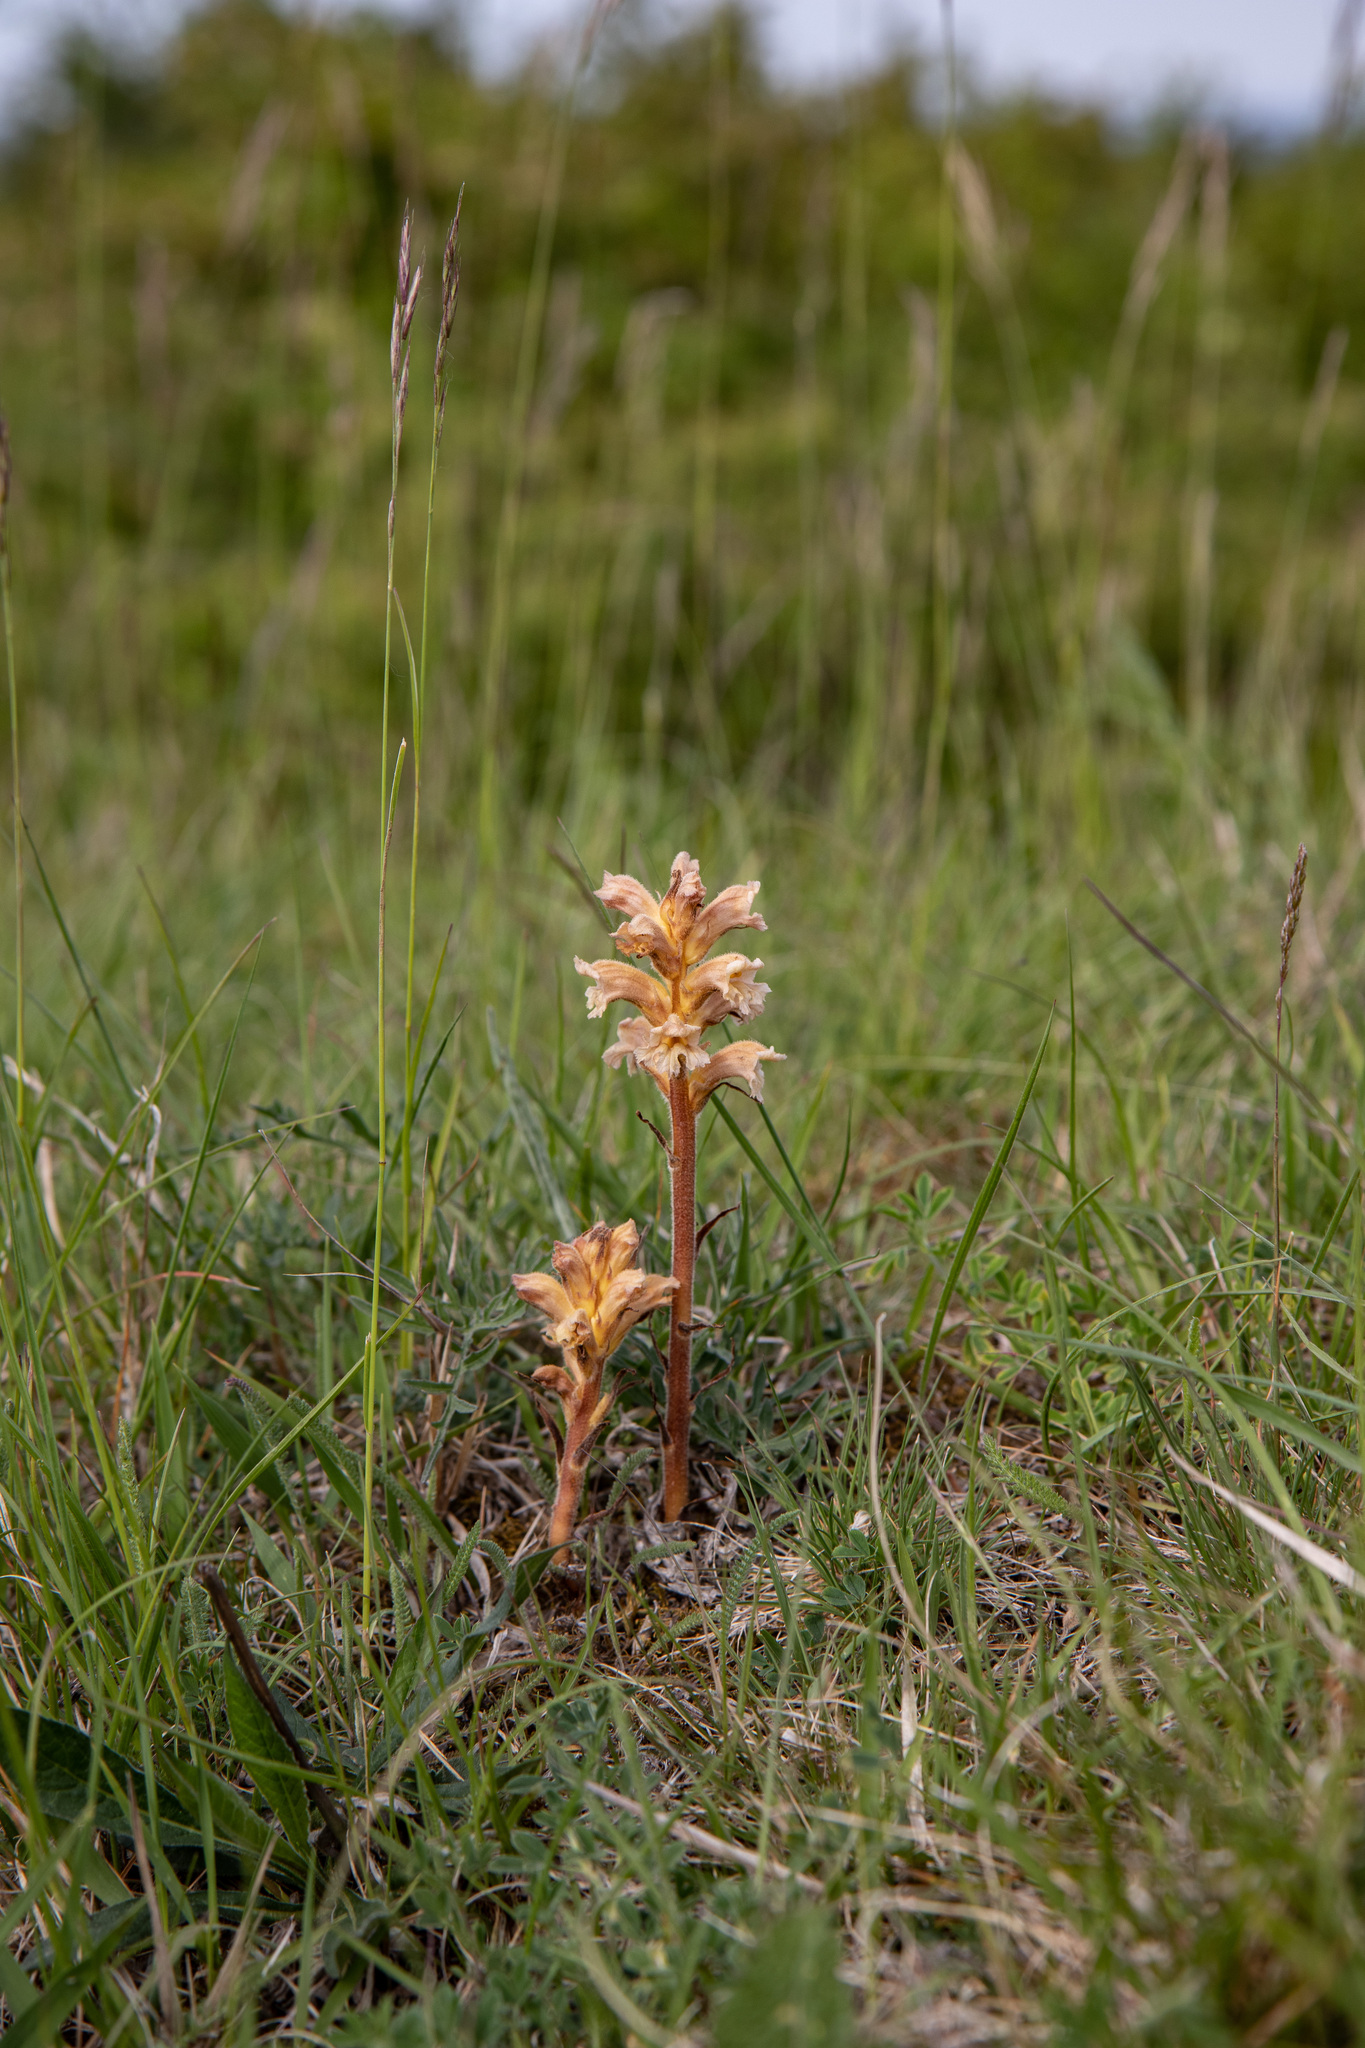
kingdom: Plantae
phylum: Tracheophyta
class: Magnoliopsida
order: Lamiales
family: Orobanchaceae
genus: Orobanche
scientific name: Orobanche lutea
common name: Yellow broomrape
